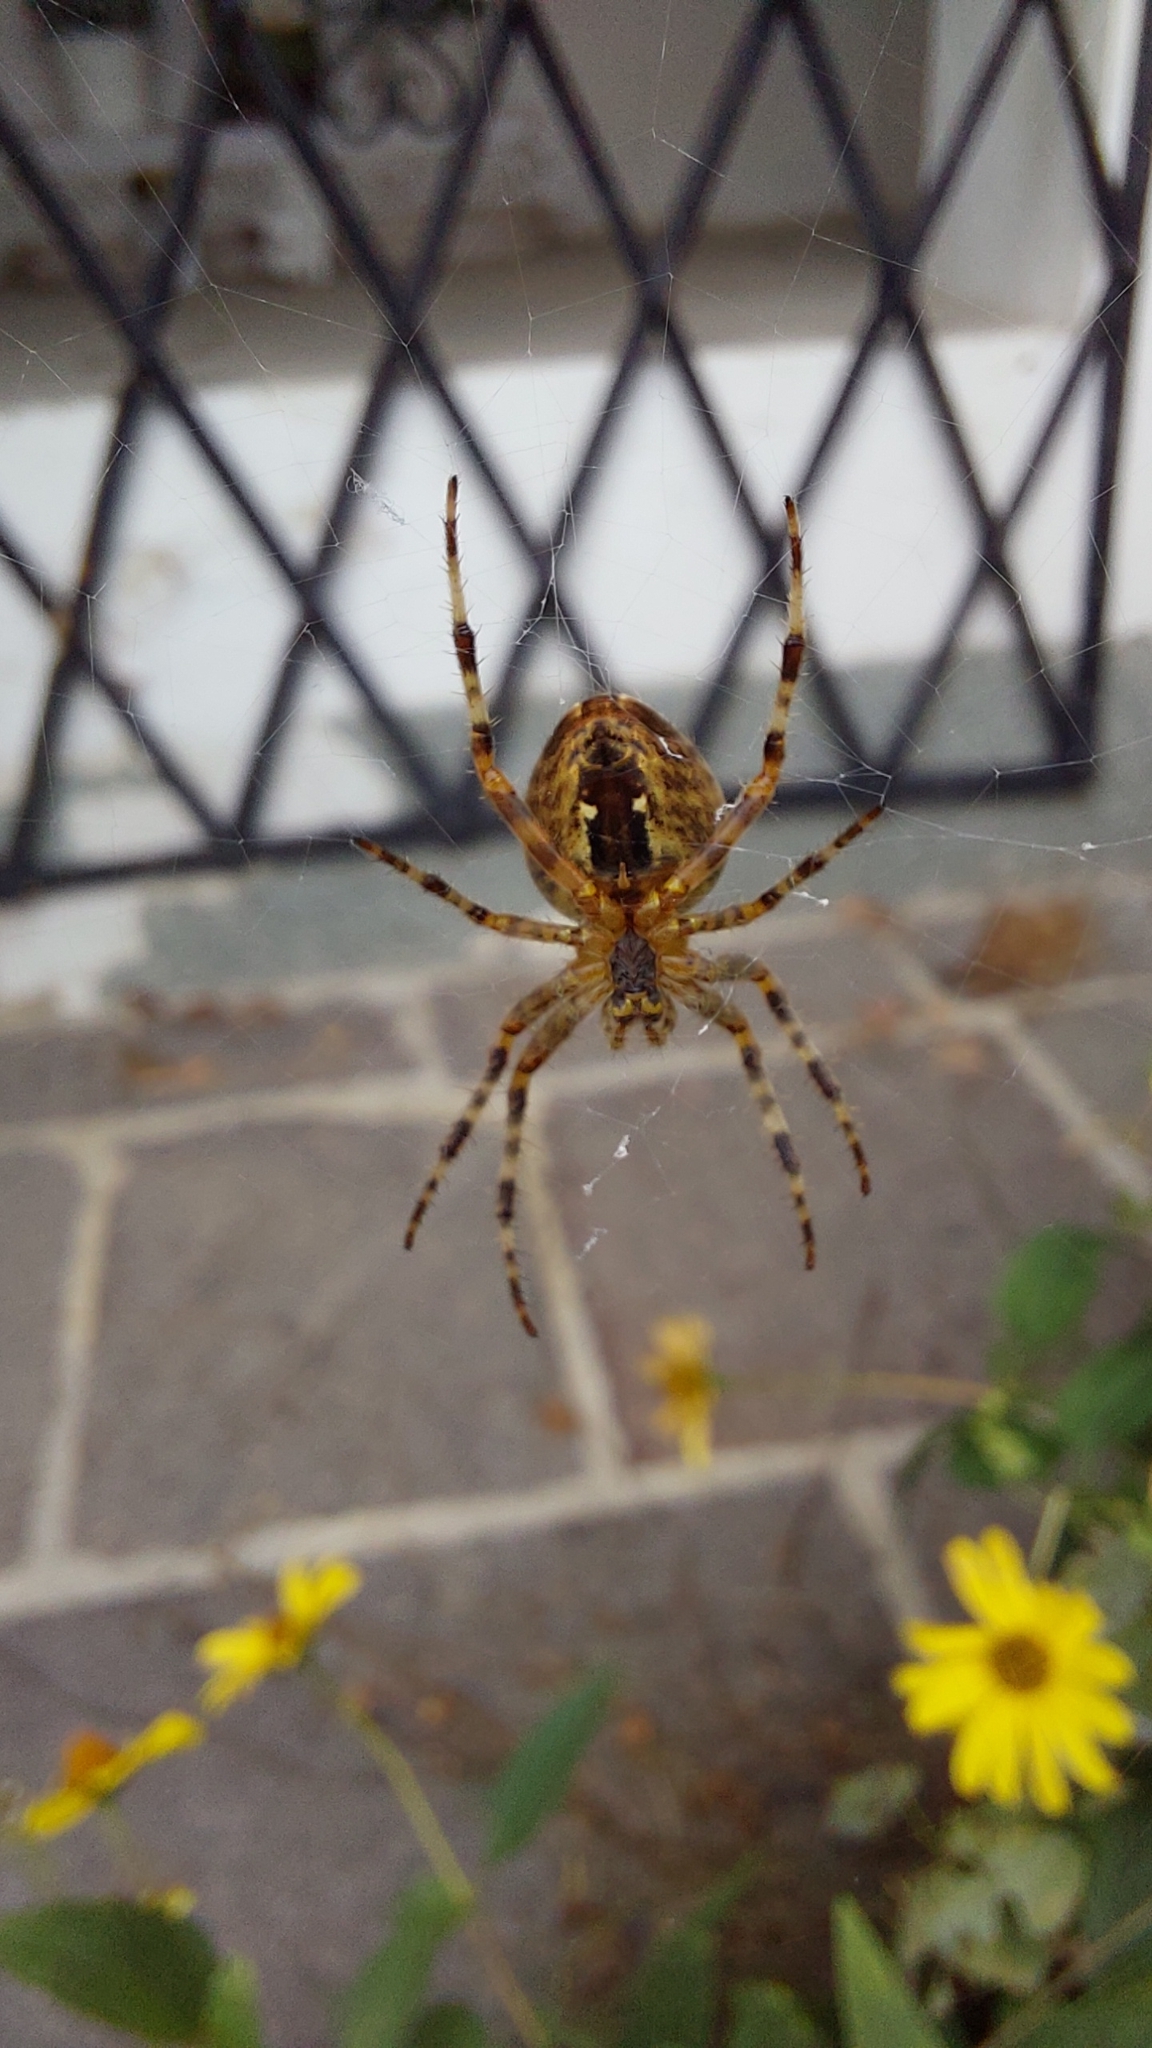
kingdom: Animalia
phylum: Arthropoda
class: Arachnida
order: Araneae
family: Araneidae
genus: Araneus
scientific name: Araneus diadematus
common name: Cross orbweaver
